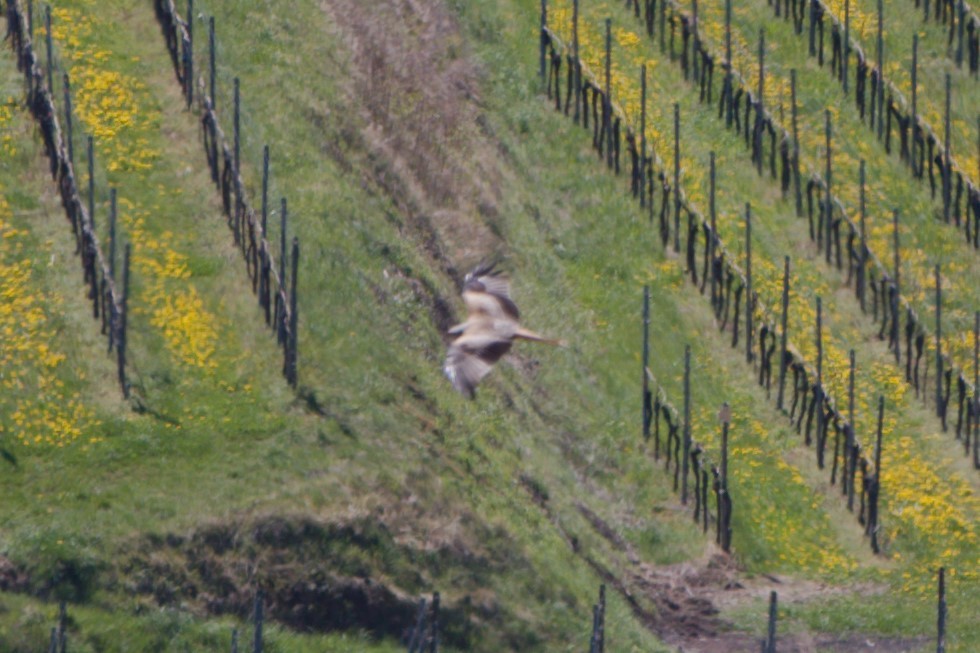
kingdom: Animalia
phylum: Chordata
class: Aves
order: Accipitriformes
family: Accipitridae
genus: Milvus
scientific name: Milvus milvus
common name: Red kite
